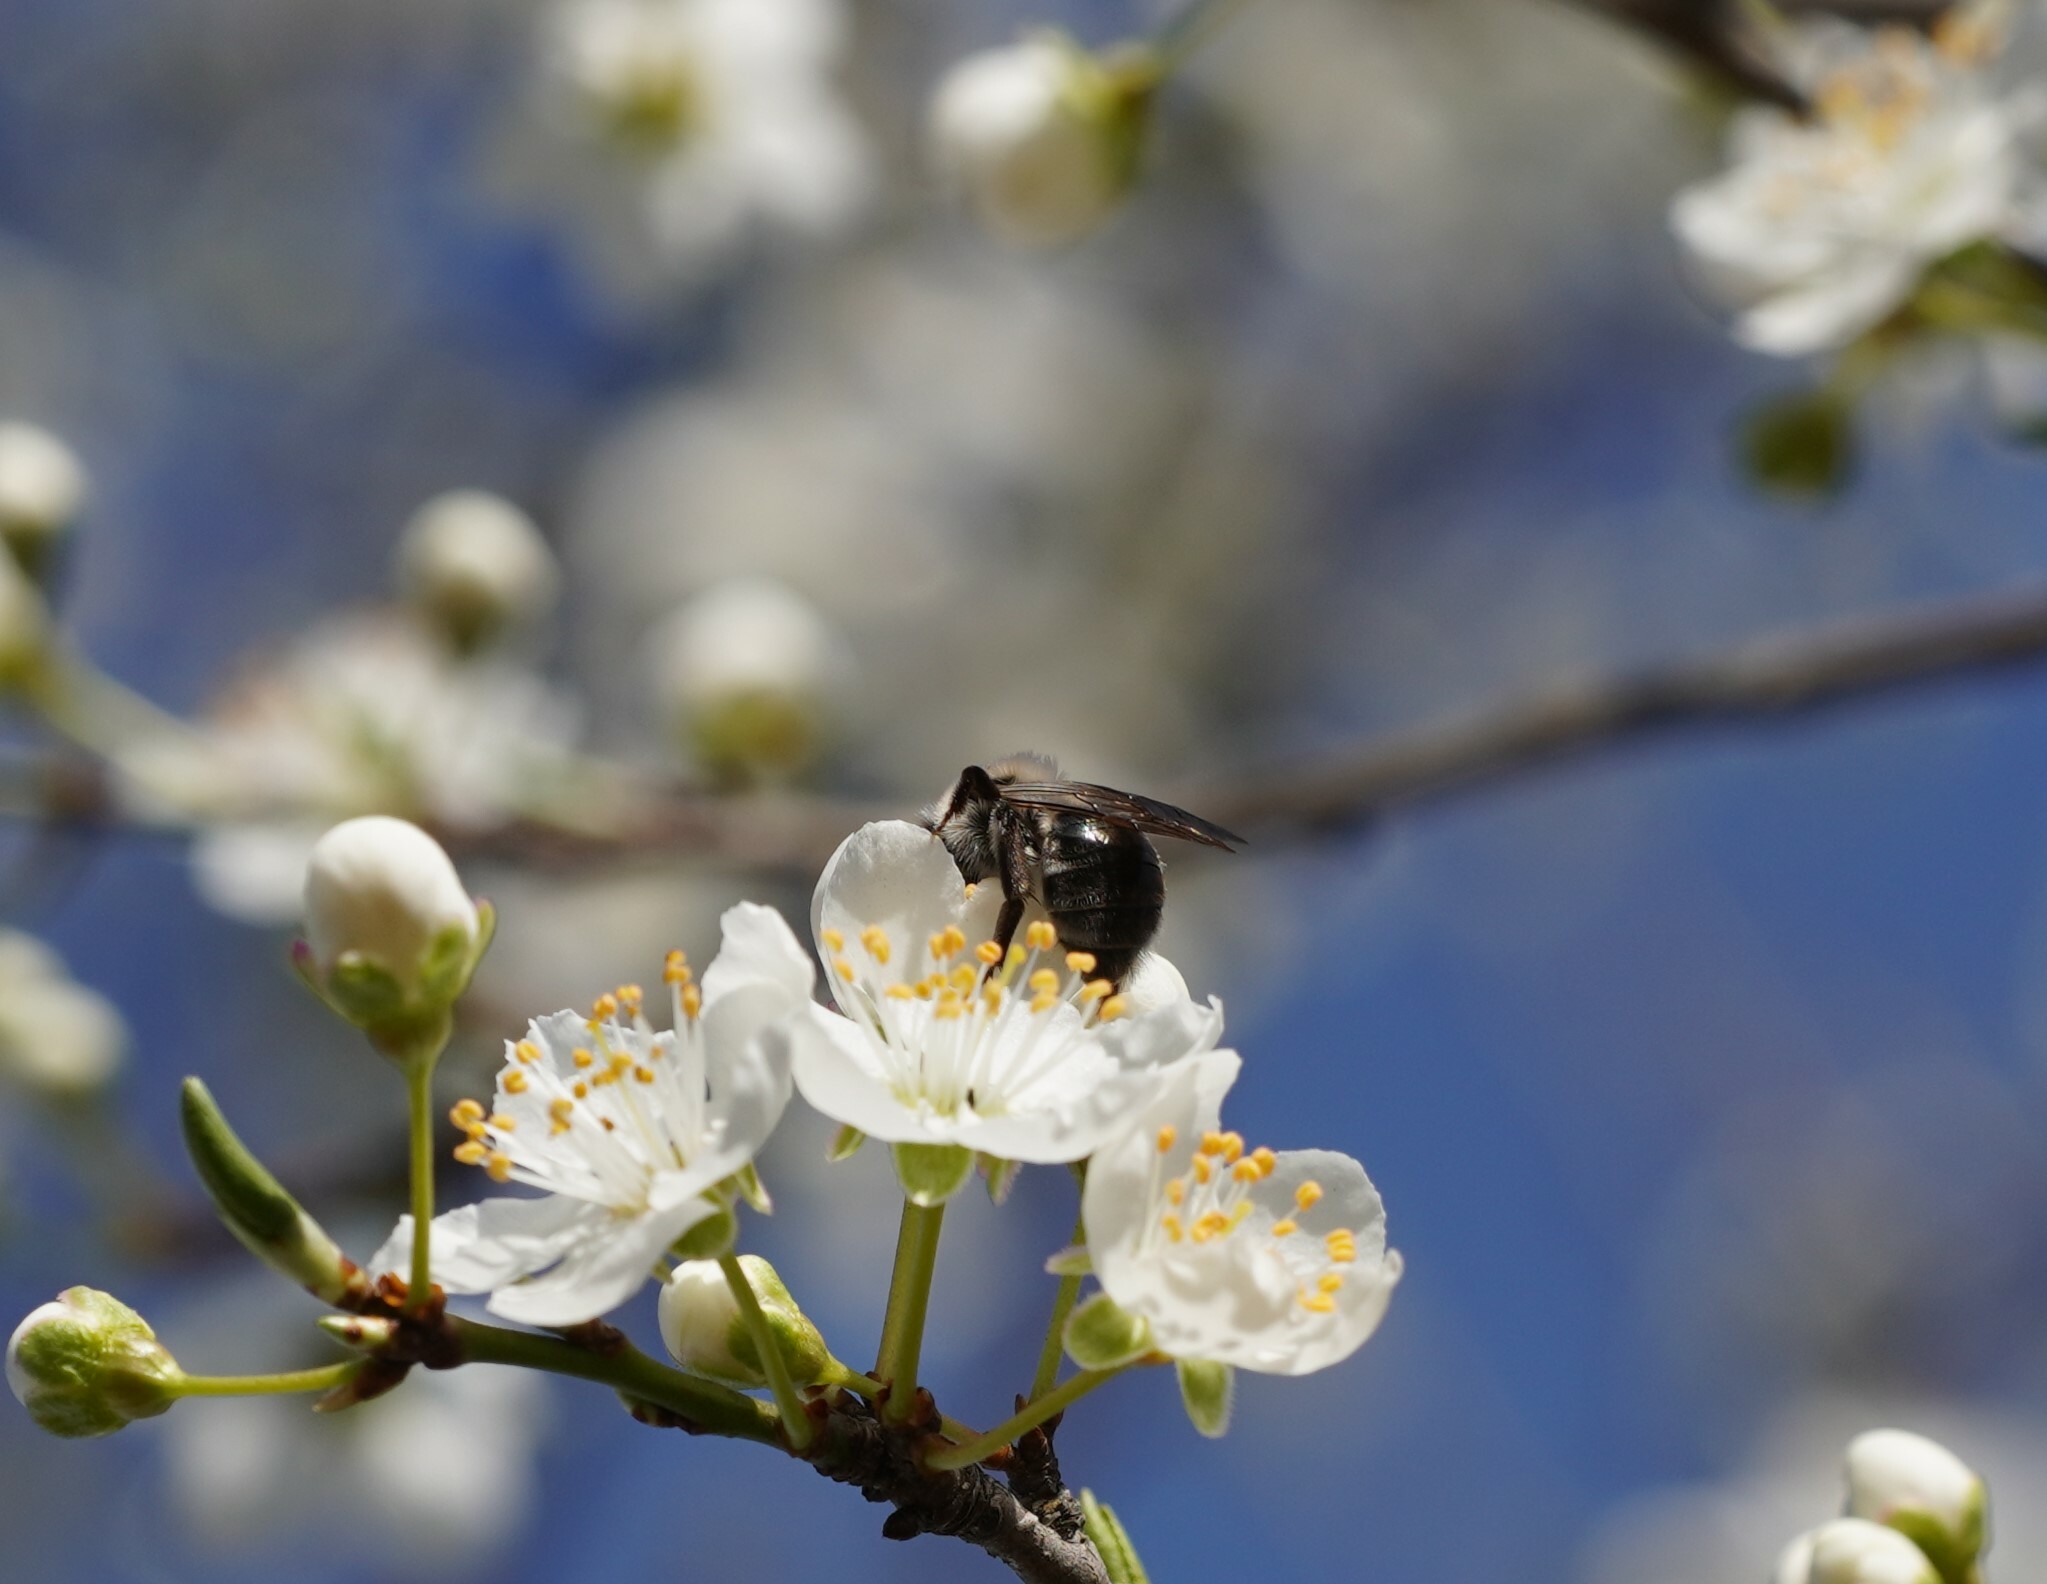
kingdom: Animalia
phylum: Arthropoda
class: Insecta
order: Hymenoptera
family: Andrenidae
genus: Andrena
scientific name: Andrena vaga
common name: Grey-backed mining bee
